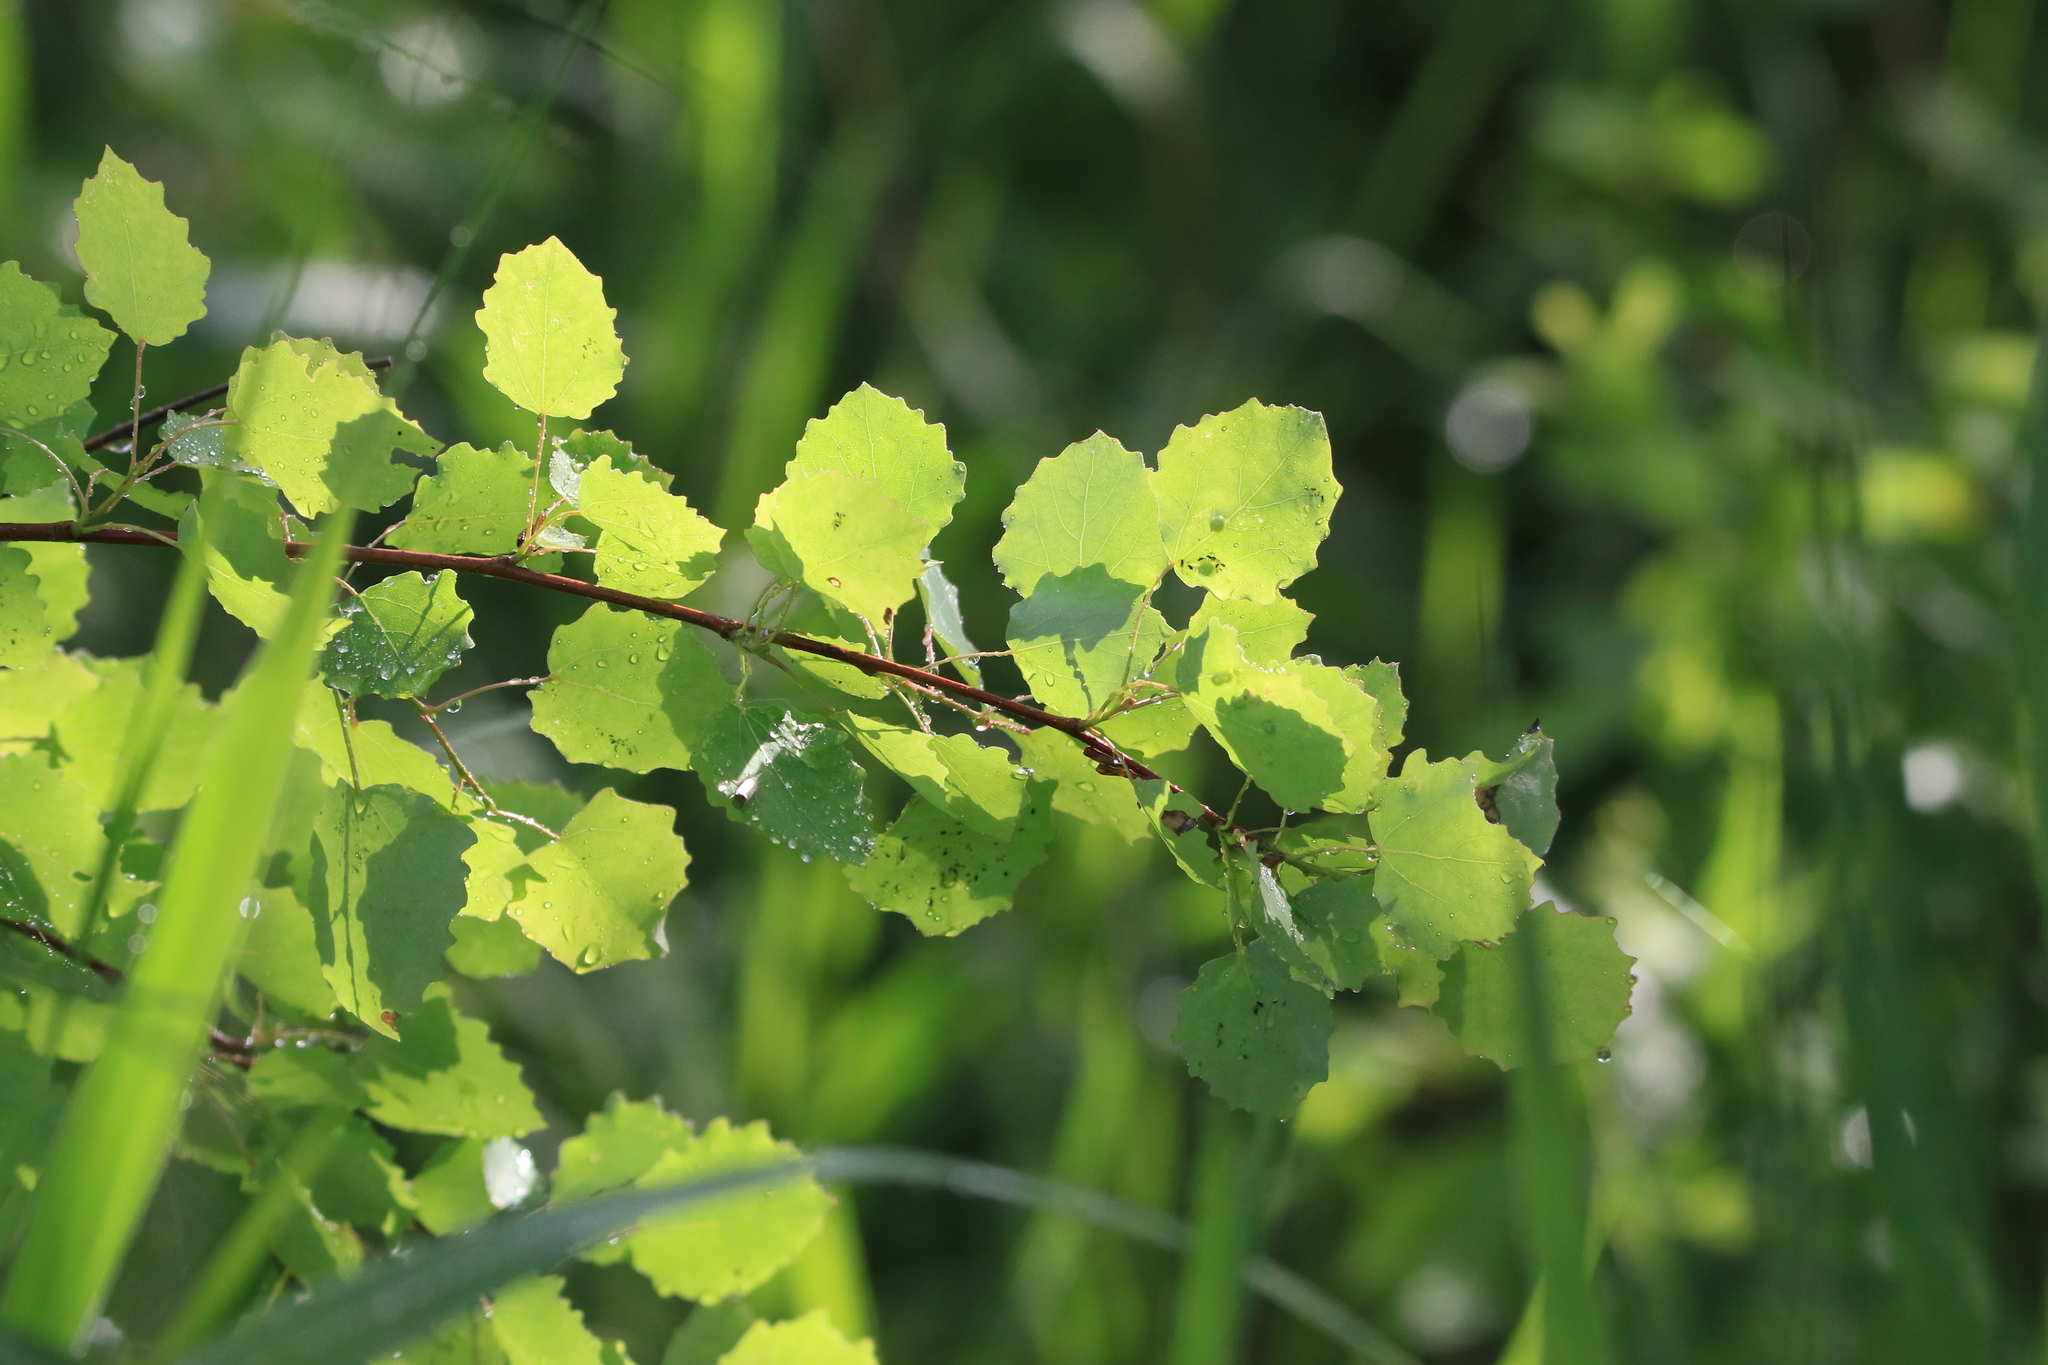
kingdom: Plantae
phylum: Tracheophyta
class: Magnoliopsida
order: Malpighiales
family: Salicaceae
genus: Populus
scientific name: Populus tremula
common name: European aspen
